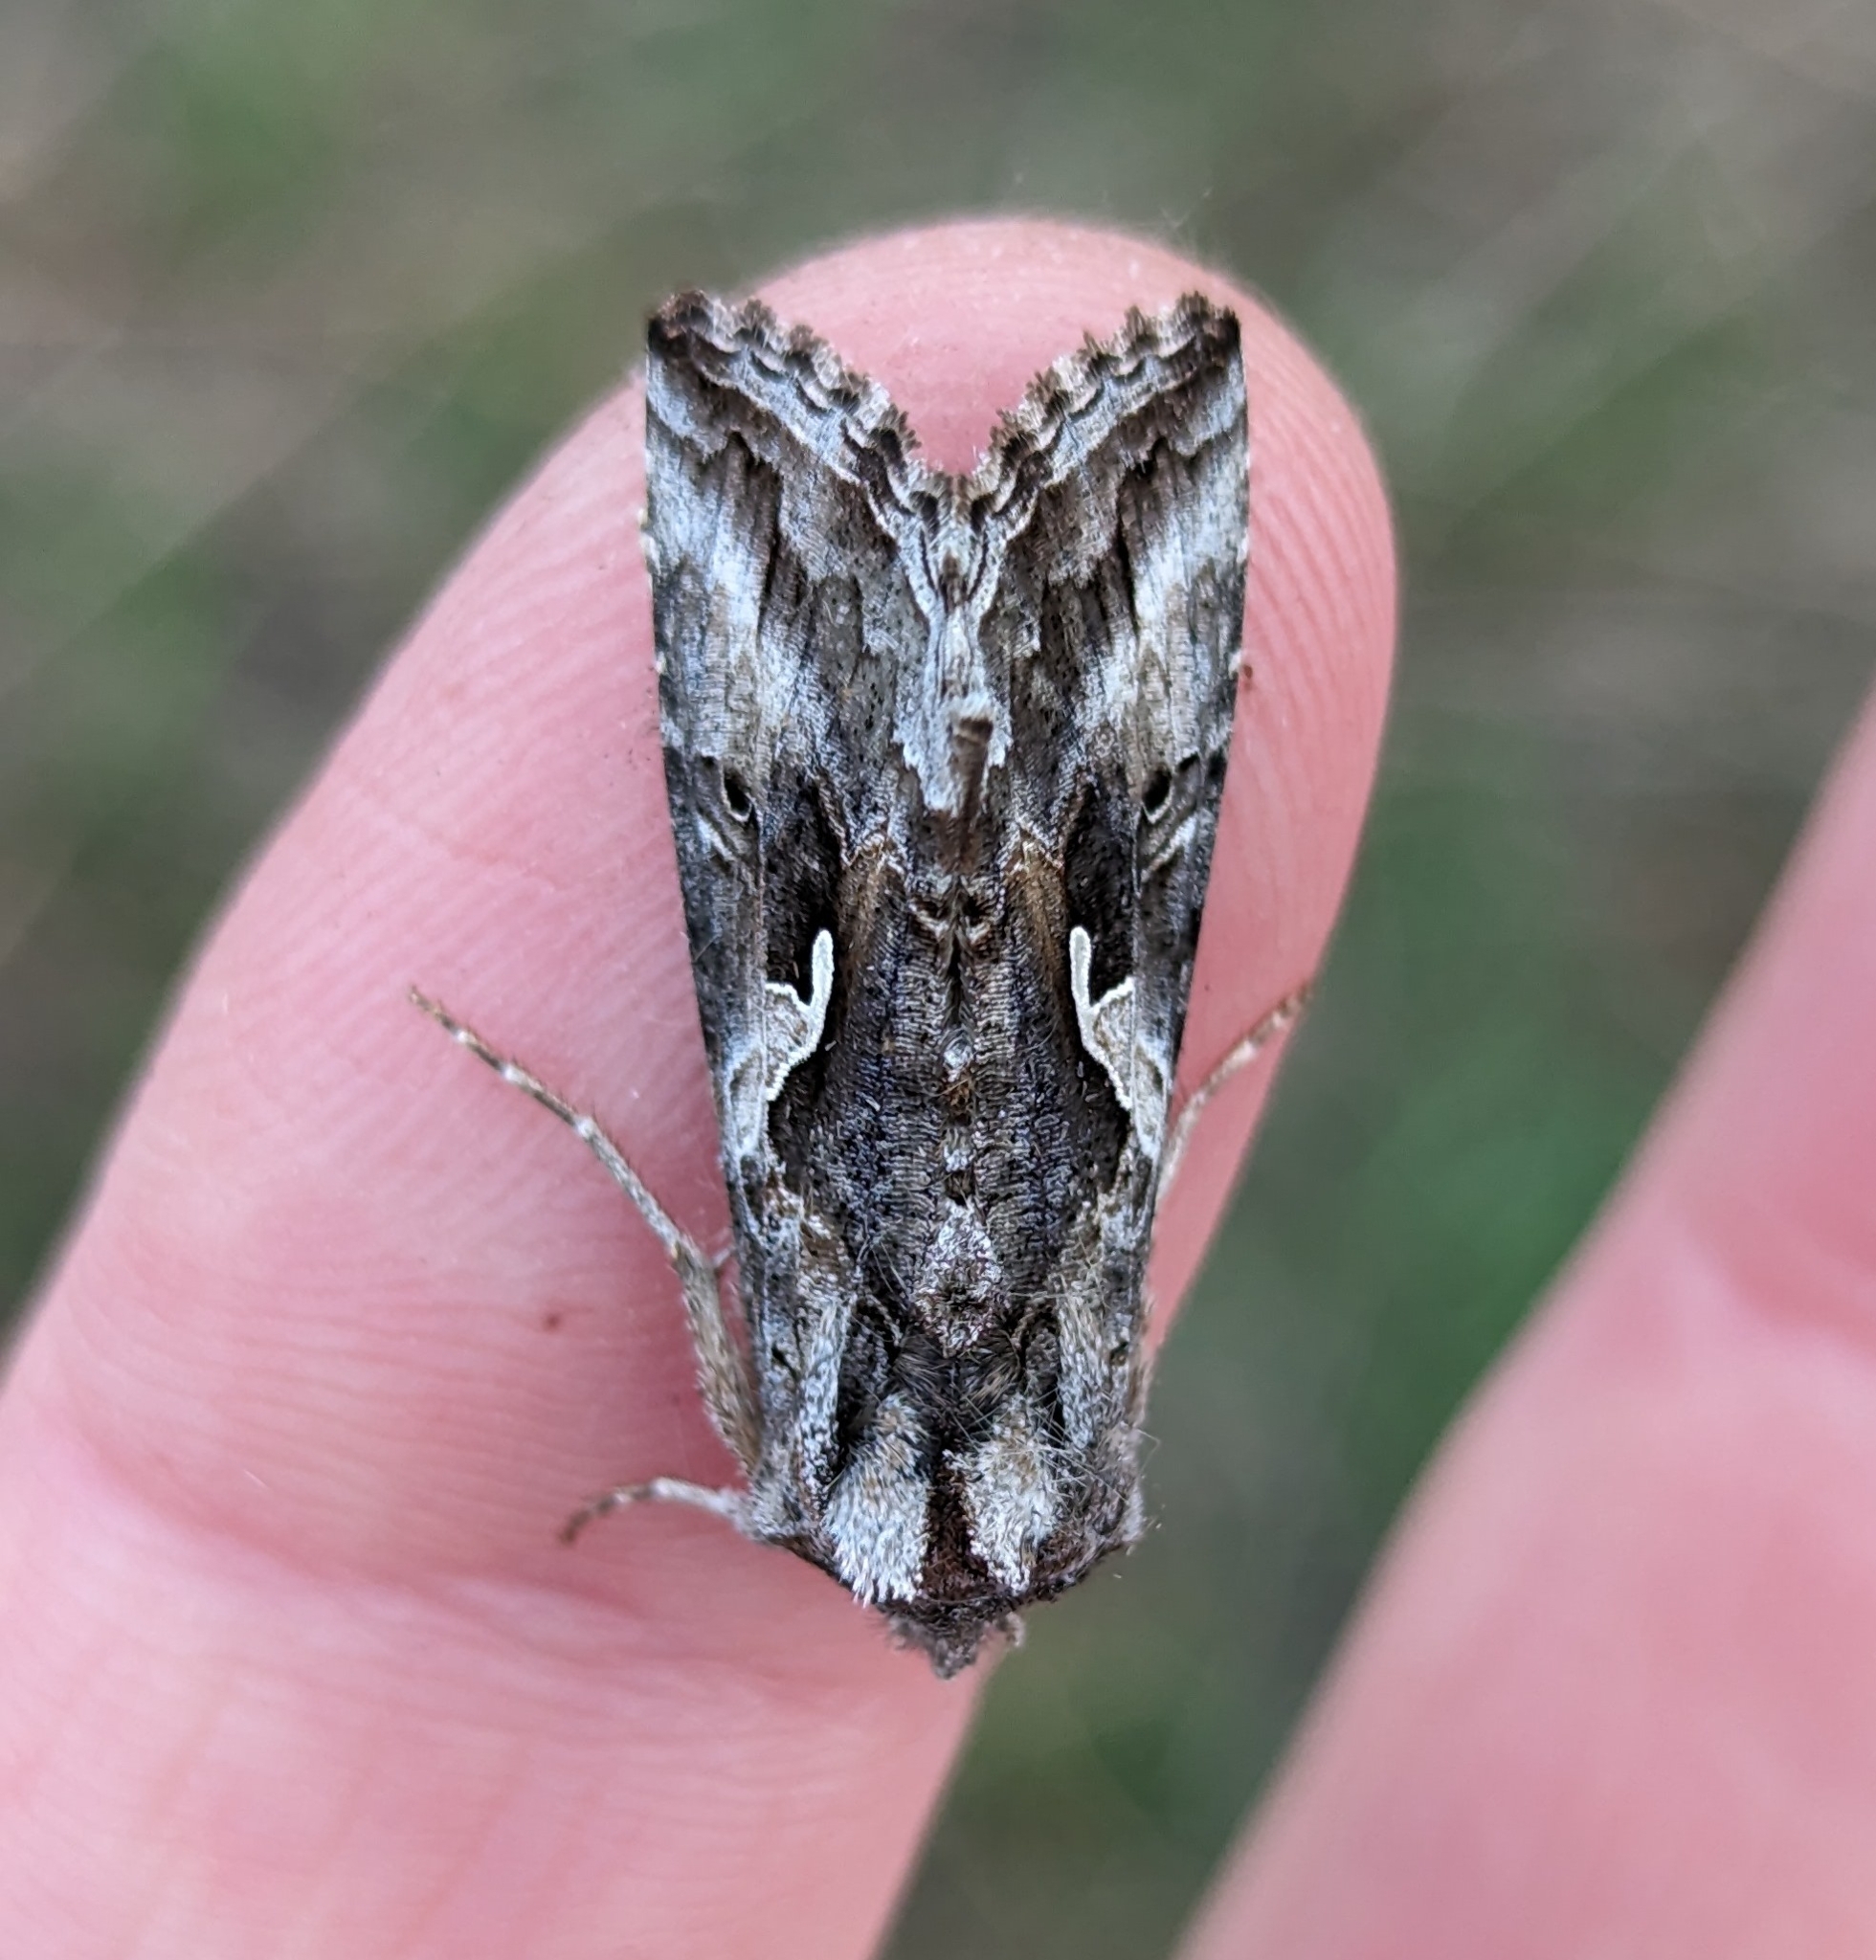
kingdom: Animalia
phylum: Arthropoda
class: Insecta
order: Lepidoptera
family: Noctuidae
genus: Autographa
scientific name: Autographa californica
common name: Alfalfa looper
